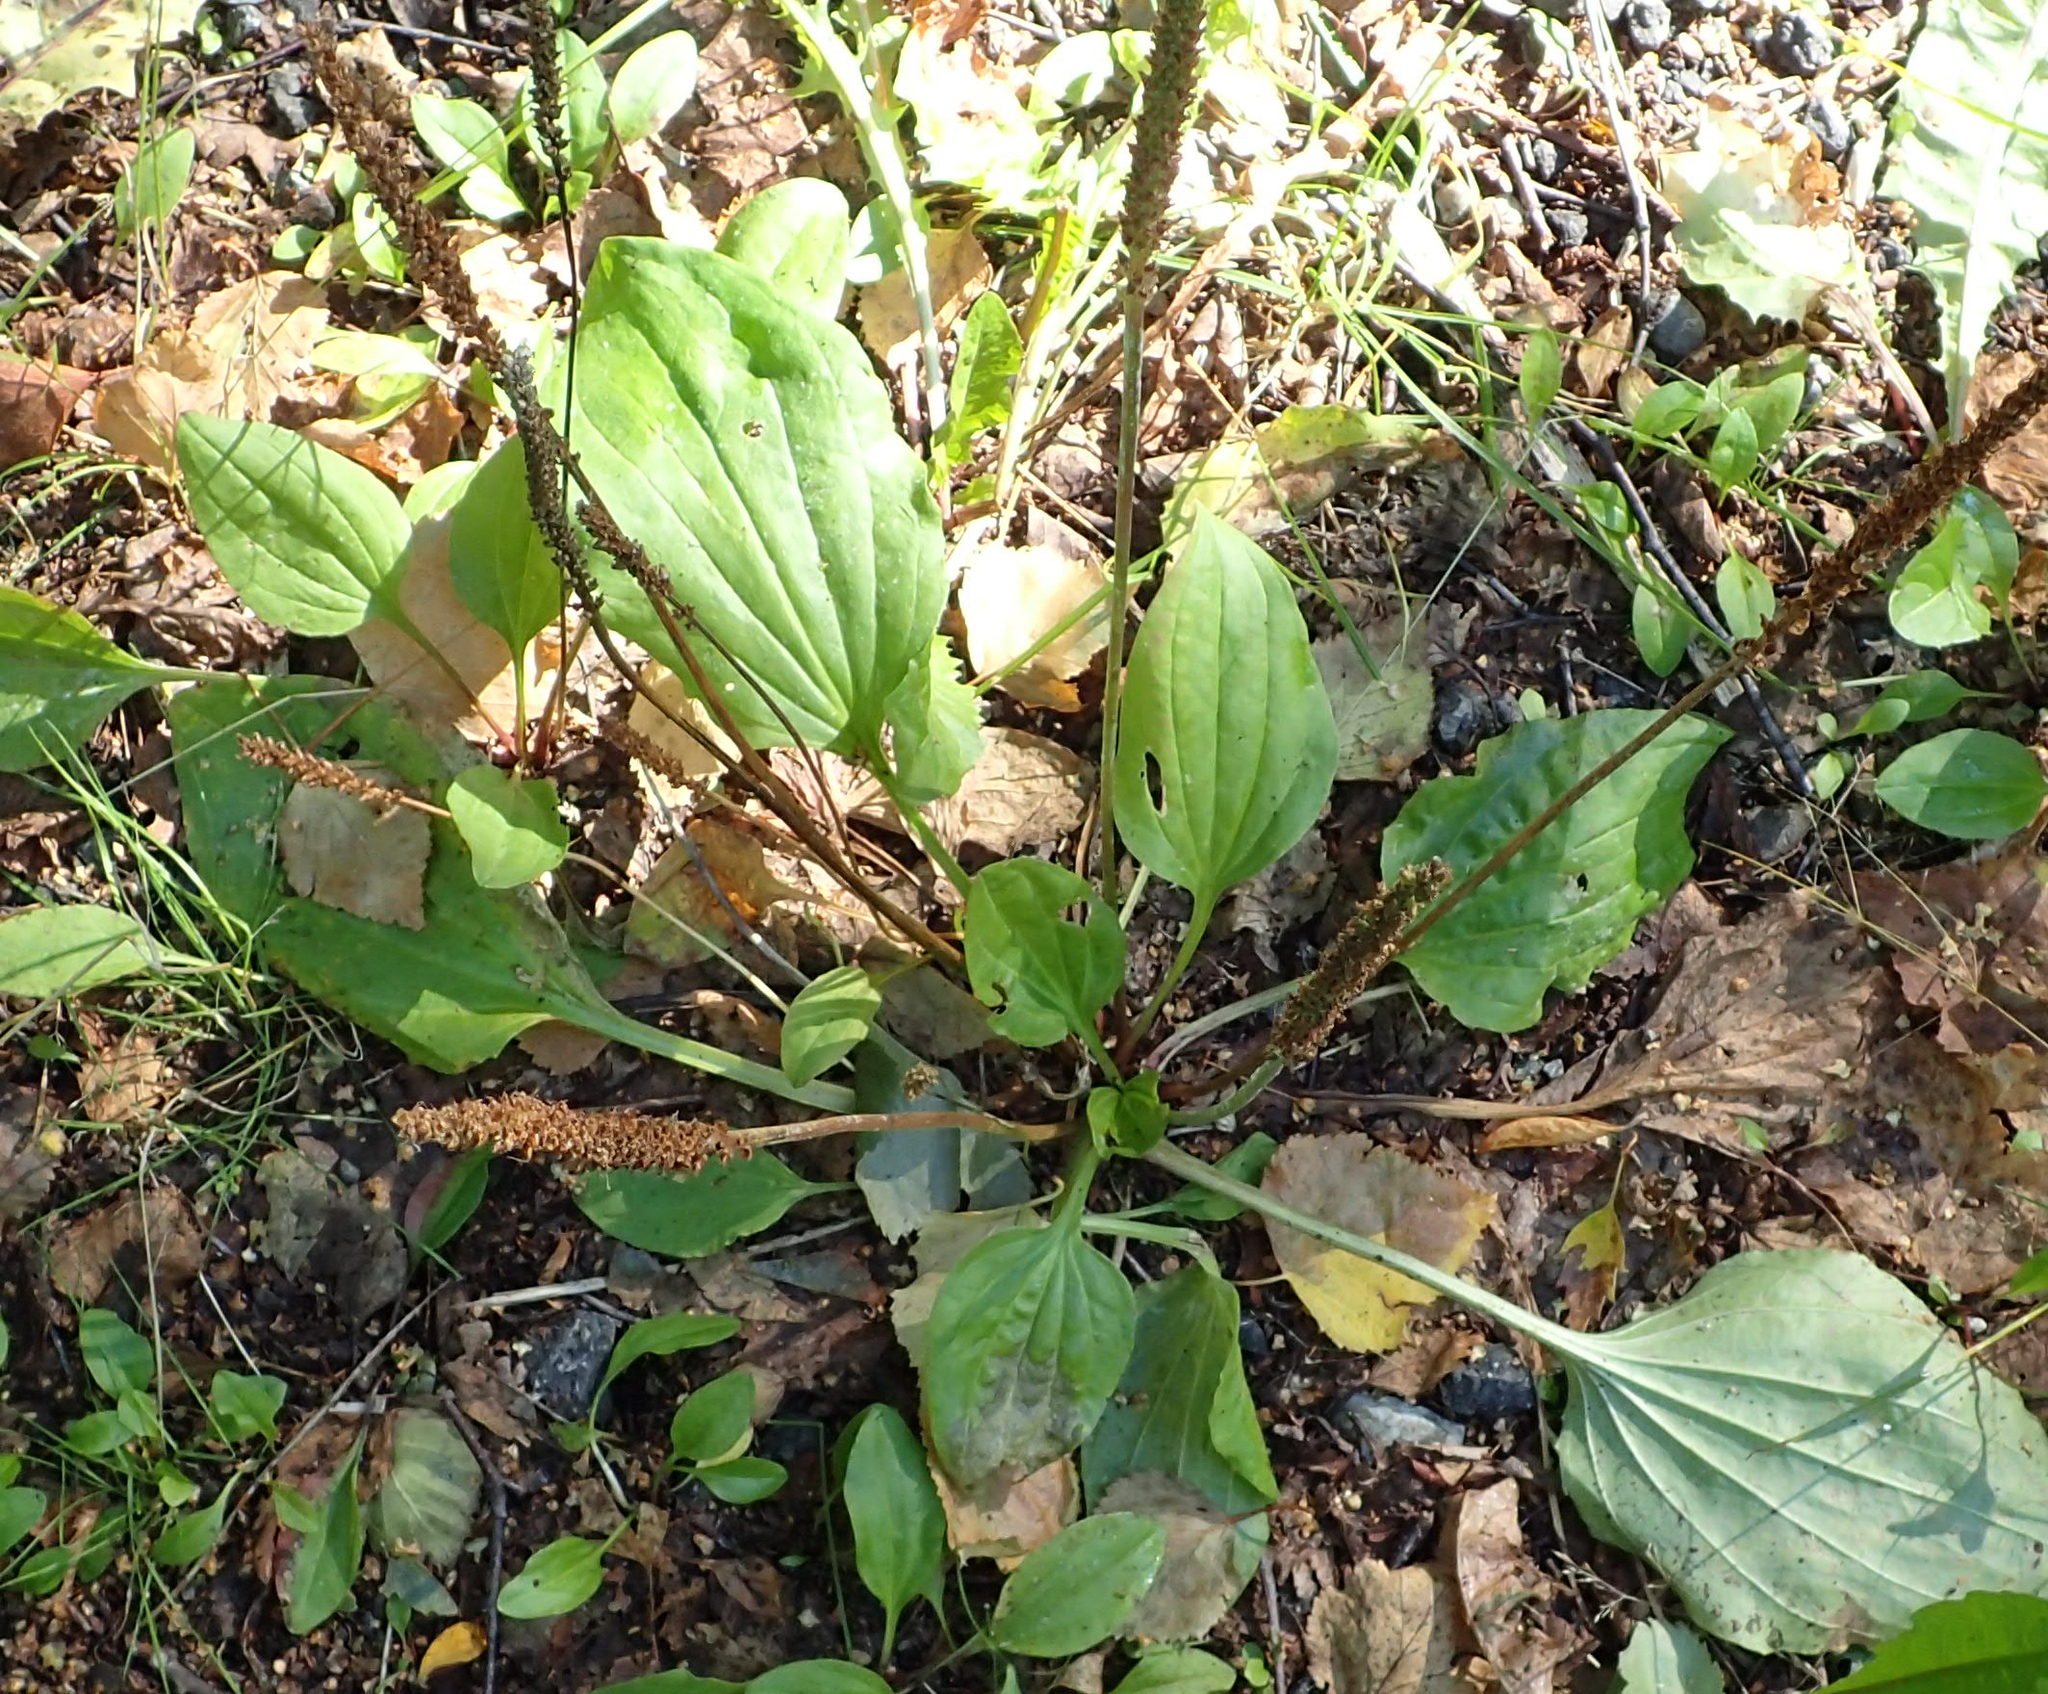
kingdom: Plantae
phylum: Tracheophyta
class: Magnoliopsida
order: Lamiales
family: Plantaginaceae
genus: Plantago
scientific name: Plantago major
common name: Common plantain
